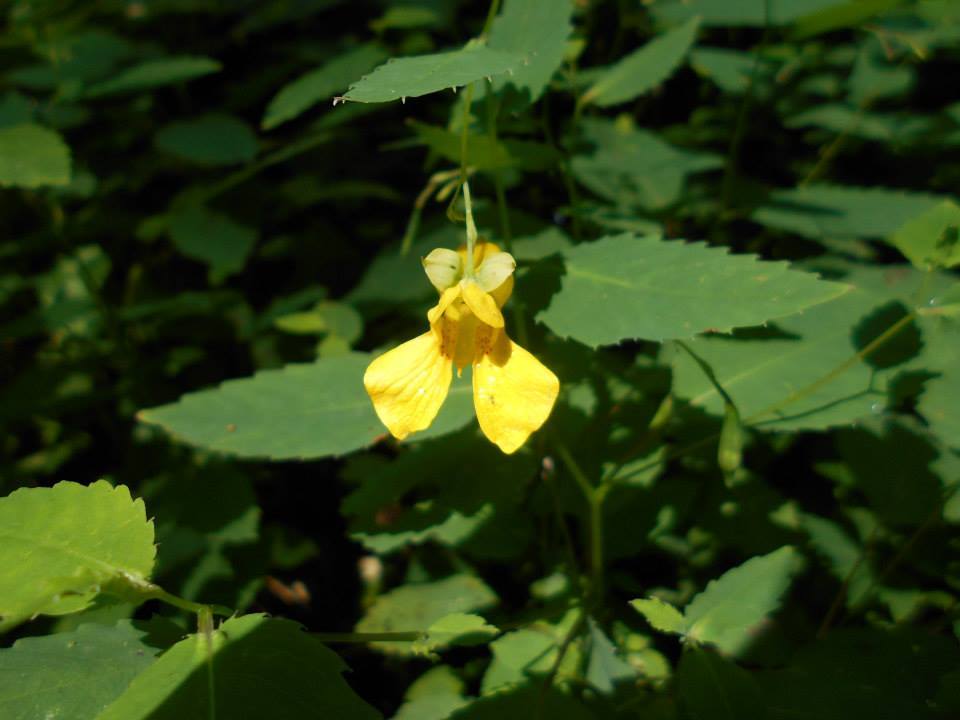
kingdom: Plantae
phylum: Tracheophyta
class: Magnoliopsida
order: Ericales
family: Balsaminaceae
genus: Impatiens
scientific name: Impatiens pallida
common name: Pale snapweed
